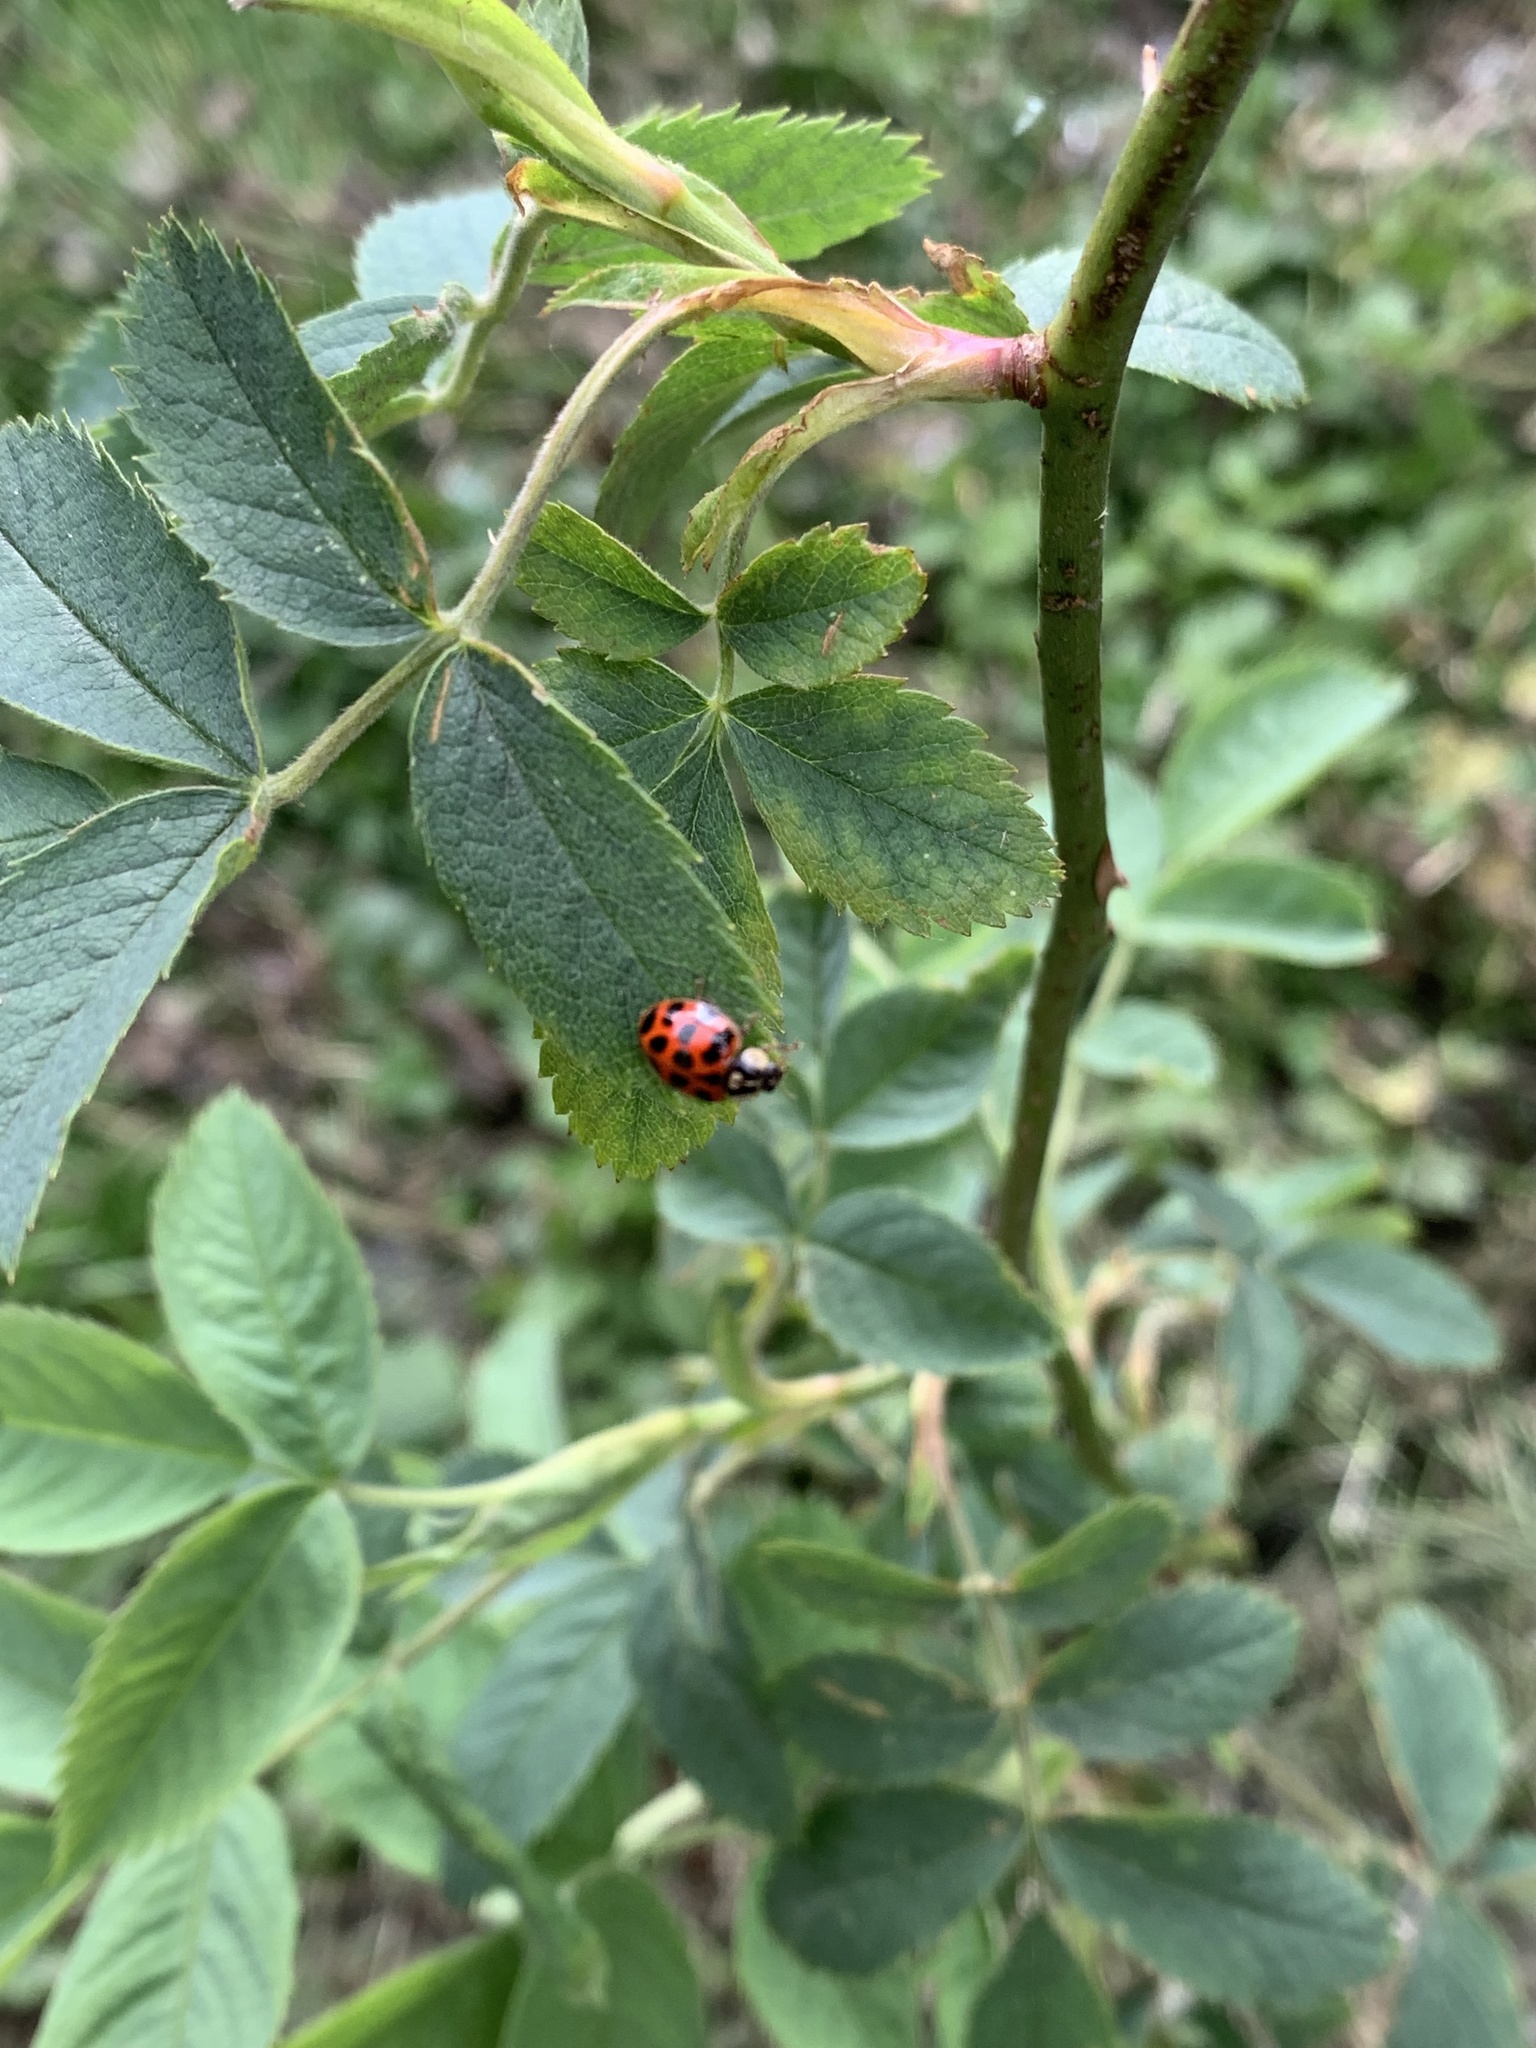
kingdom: Animalia
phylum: Arthropoda
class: Insecta
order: Coleoptera
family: Coccinellidae
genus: Harmonia
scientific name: Harmonia axyridis
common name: Harlequin ladybird
